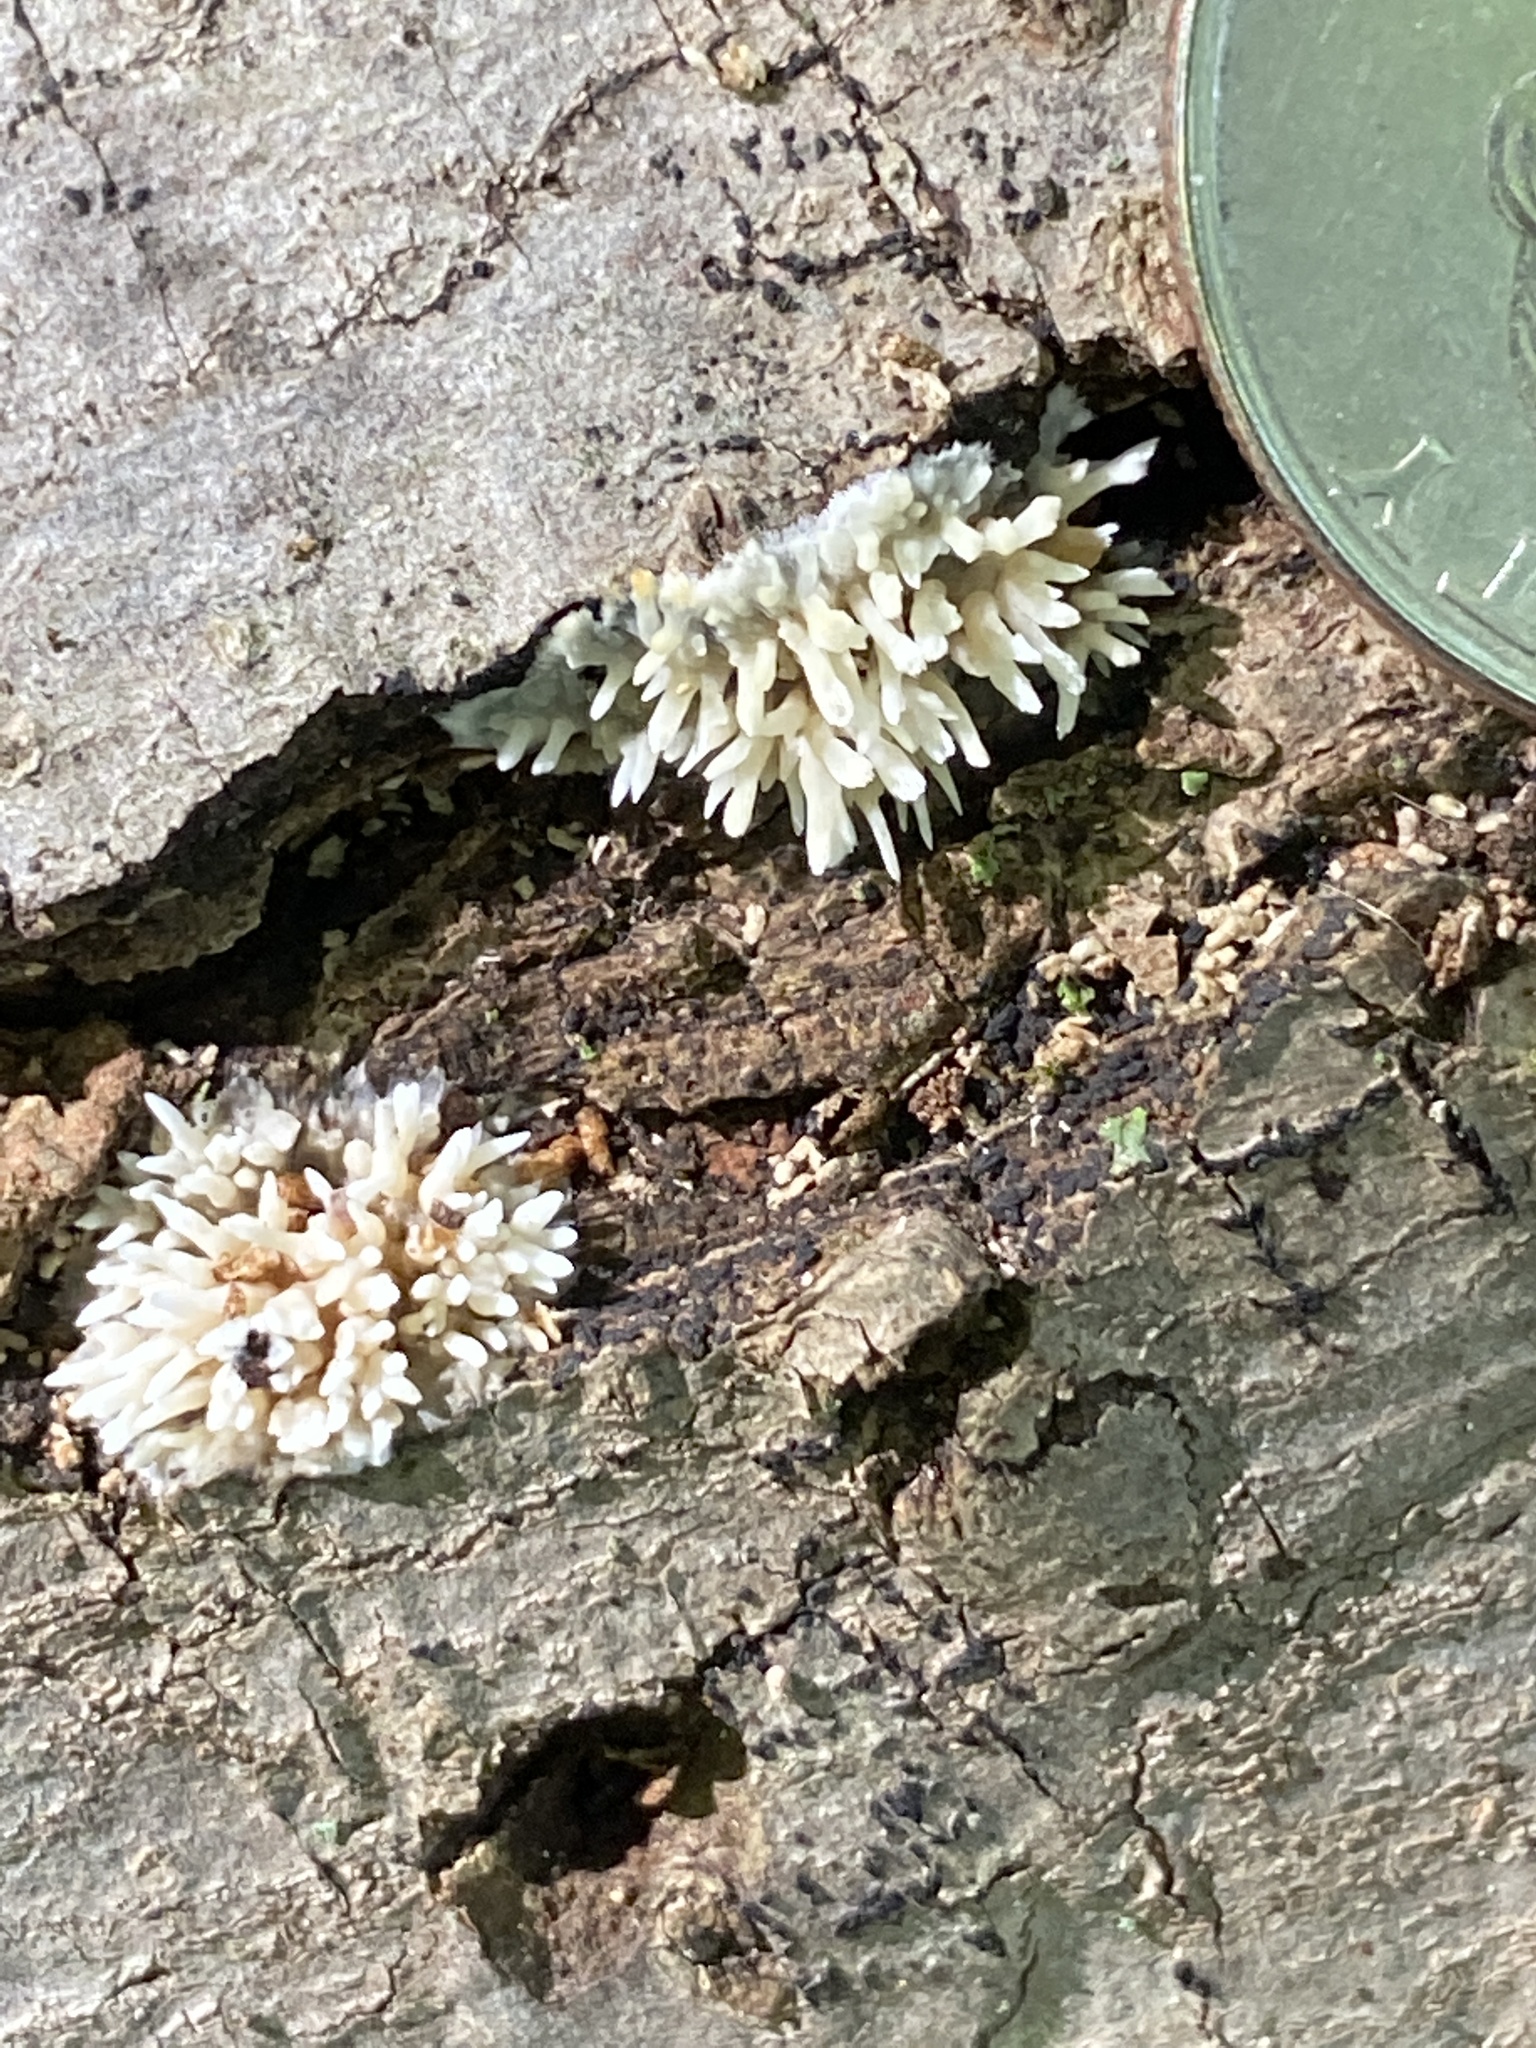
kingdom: Fungi
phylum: Basidiomycota
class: Agaricomycetes
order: Agaricales
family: Radulomycetaceae
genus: Radulomyces
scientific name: Radulomyces copelandii
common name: Asian beauty
